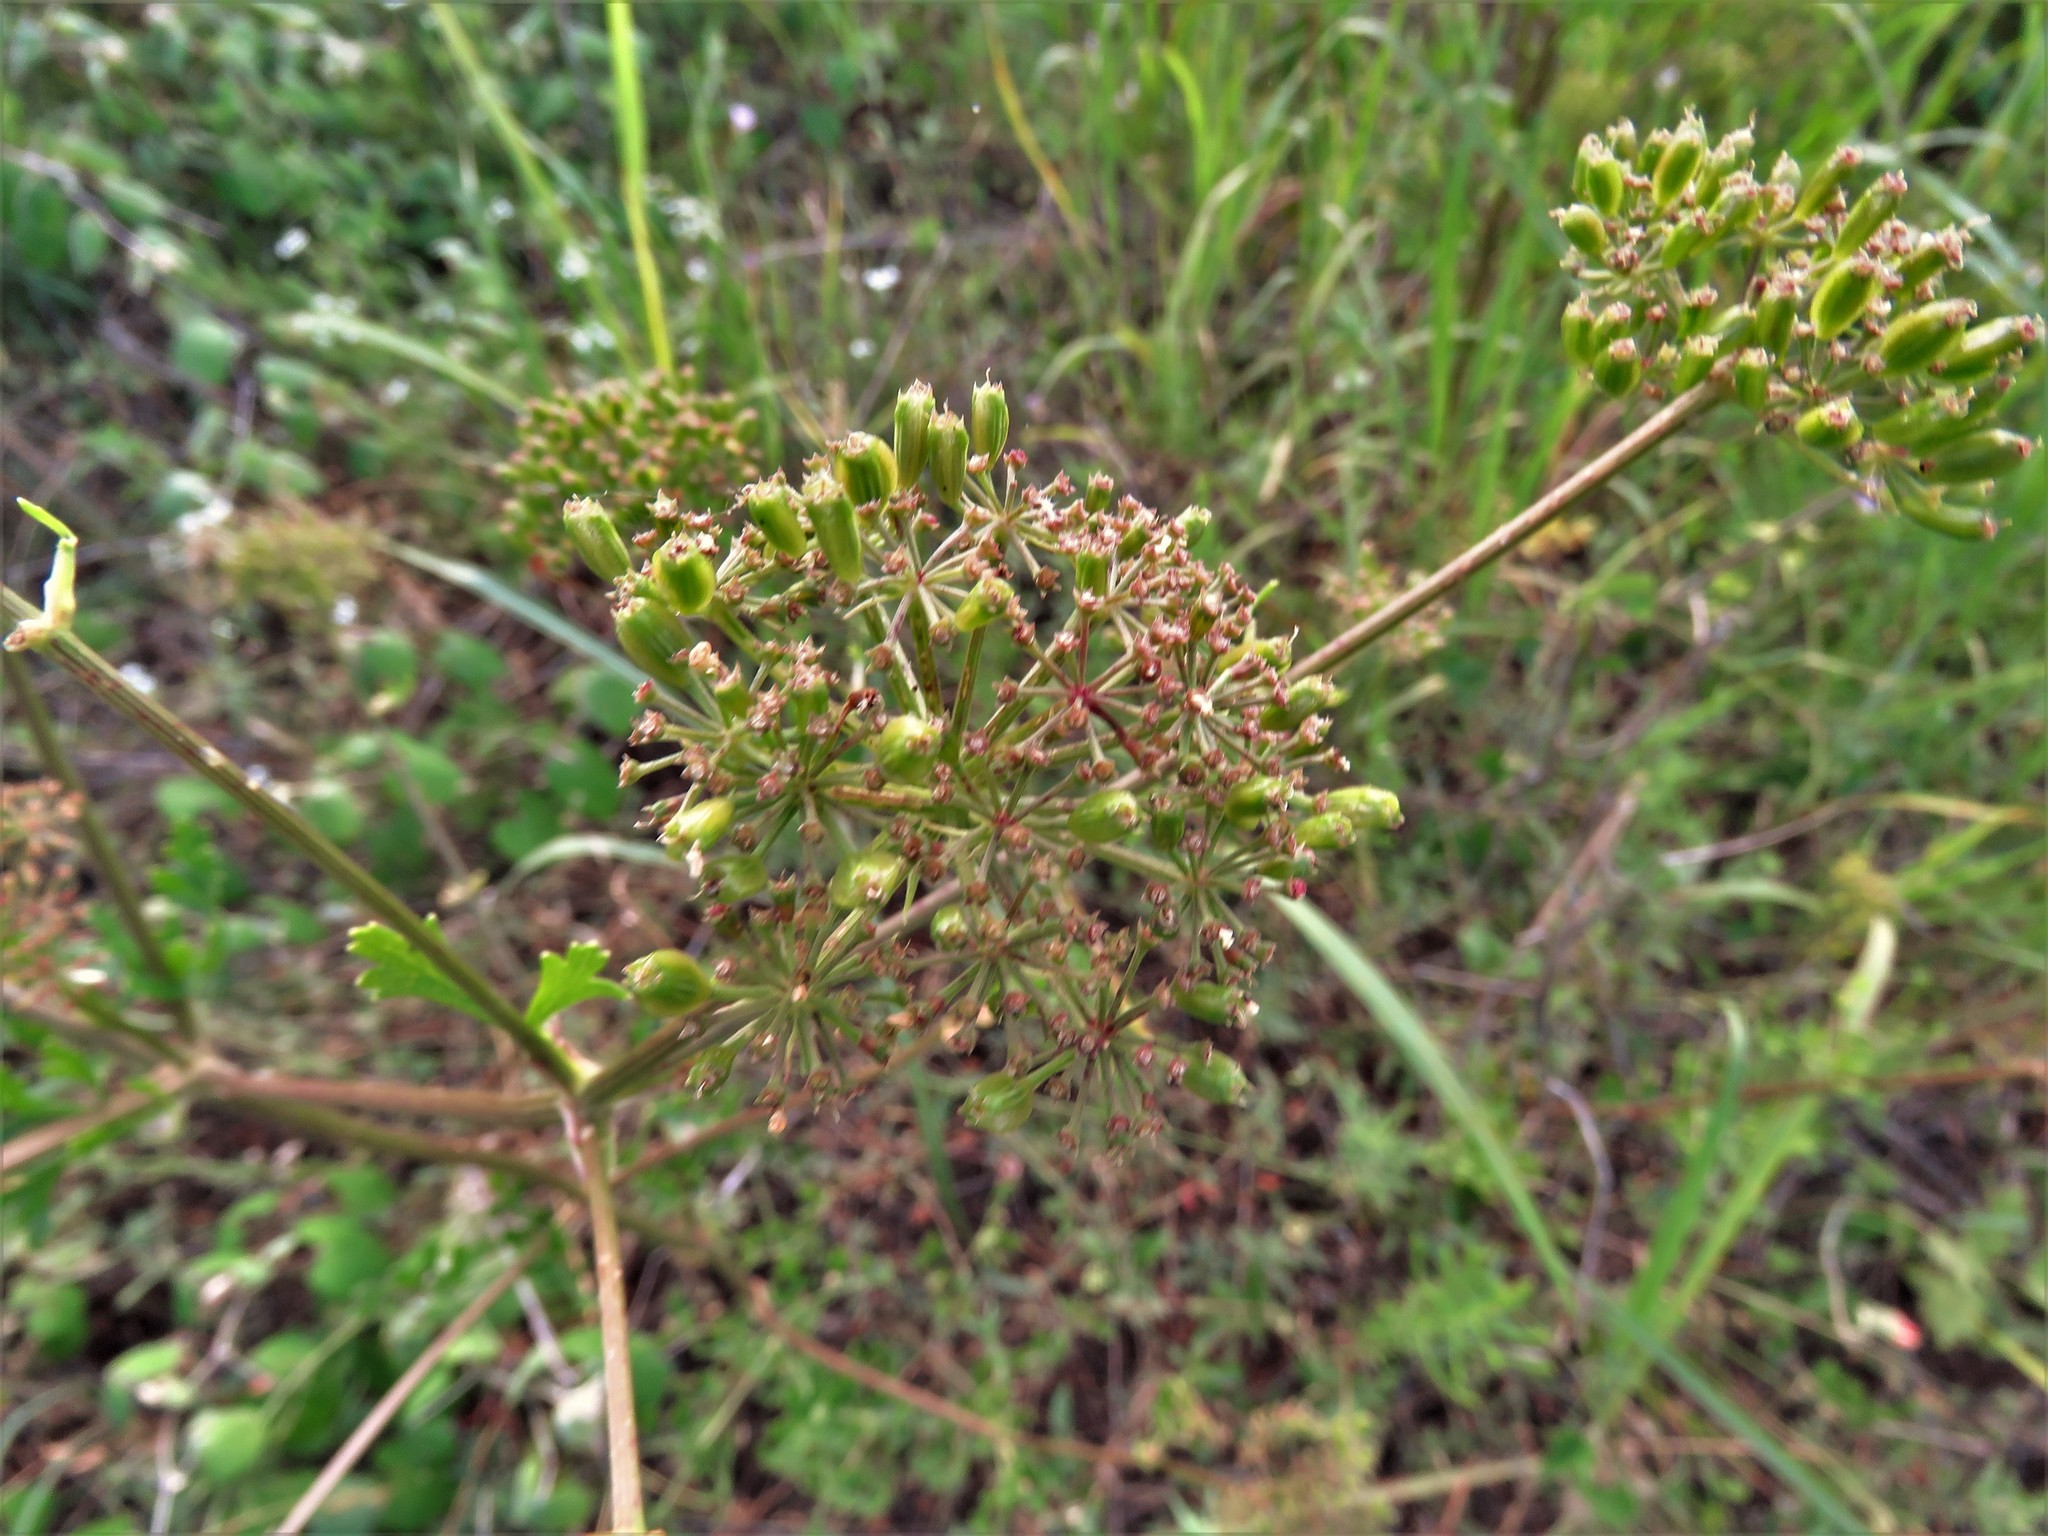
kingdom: Plantae
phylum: Tracheophyta
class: Magnoliopsida
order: Apiales
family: Apiaceae
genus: Polytaenia
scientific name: Polytaenia texana
